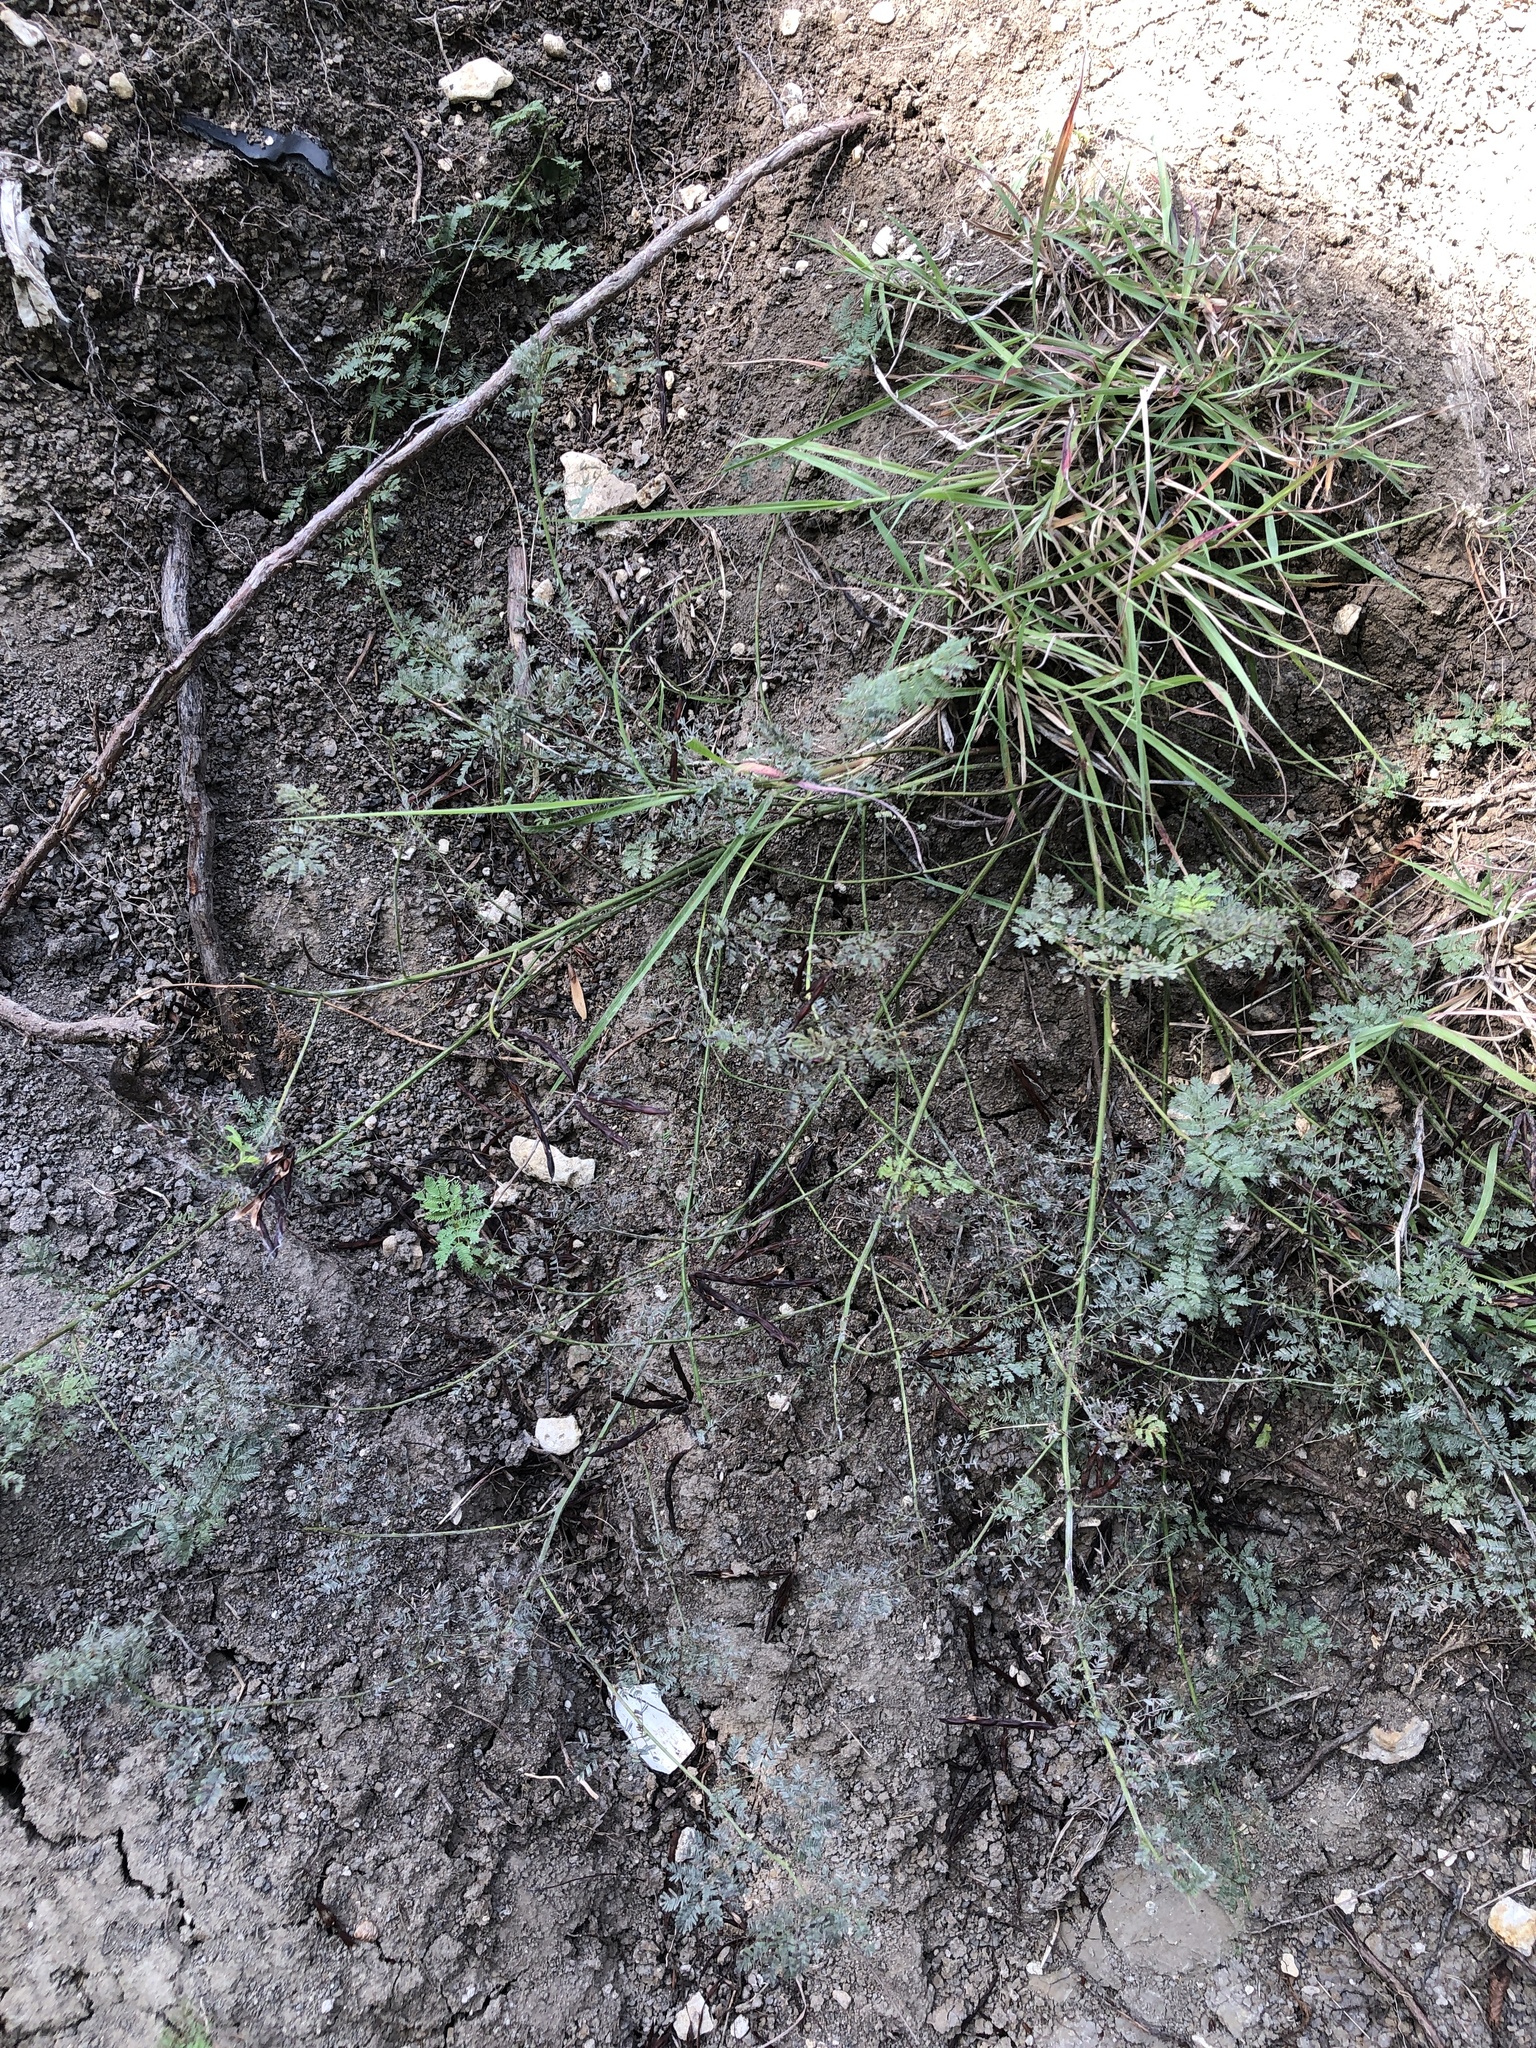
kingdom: Plantae
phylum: Tracheophyta
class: Magnoliopsida
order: Fabales
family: Fabaceae
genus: Desmanthus
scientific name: Desmanthus leptolobus
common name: Prairie-mimosa
